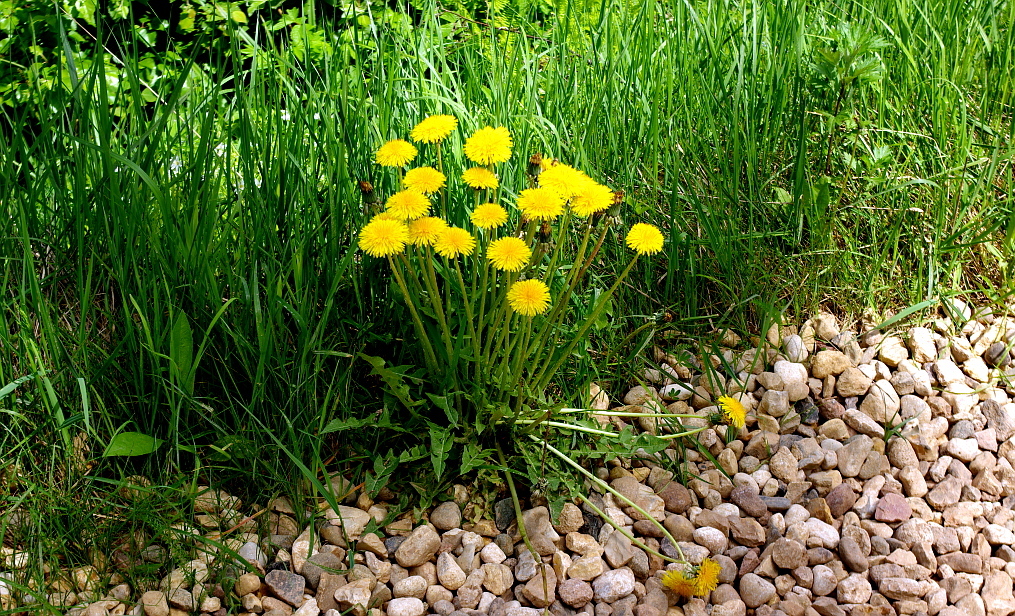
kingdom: Plantae
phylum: Tracheophyta
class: Magnoliopsida
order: Asterales
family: Asteraceae
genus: Taraxacum
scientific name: Taraxacum officinale
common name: Common dandelion
